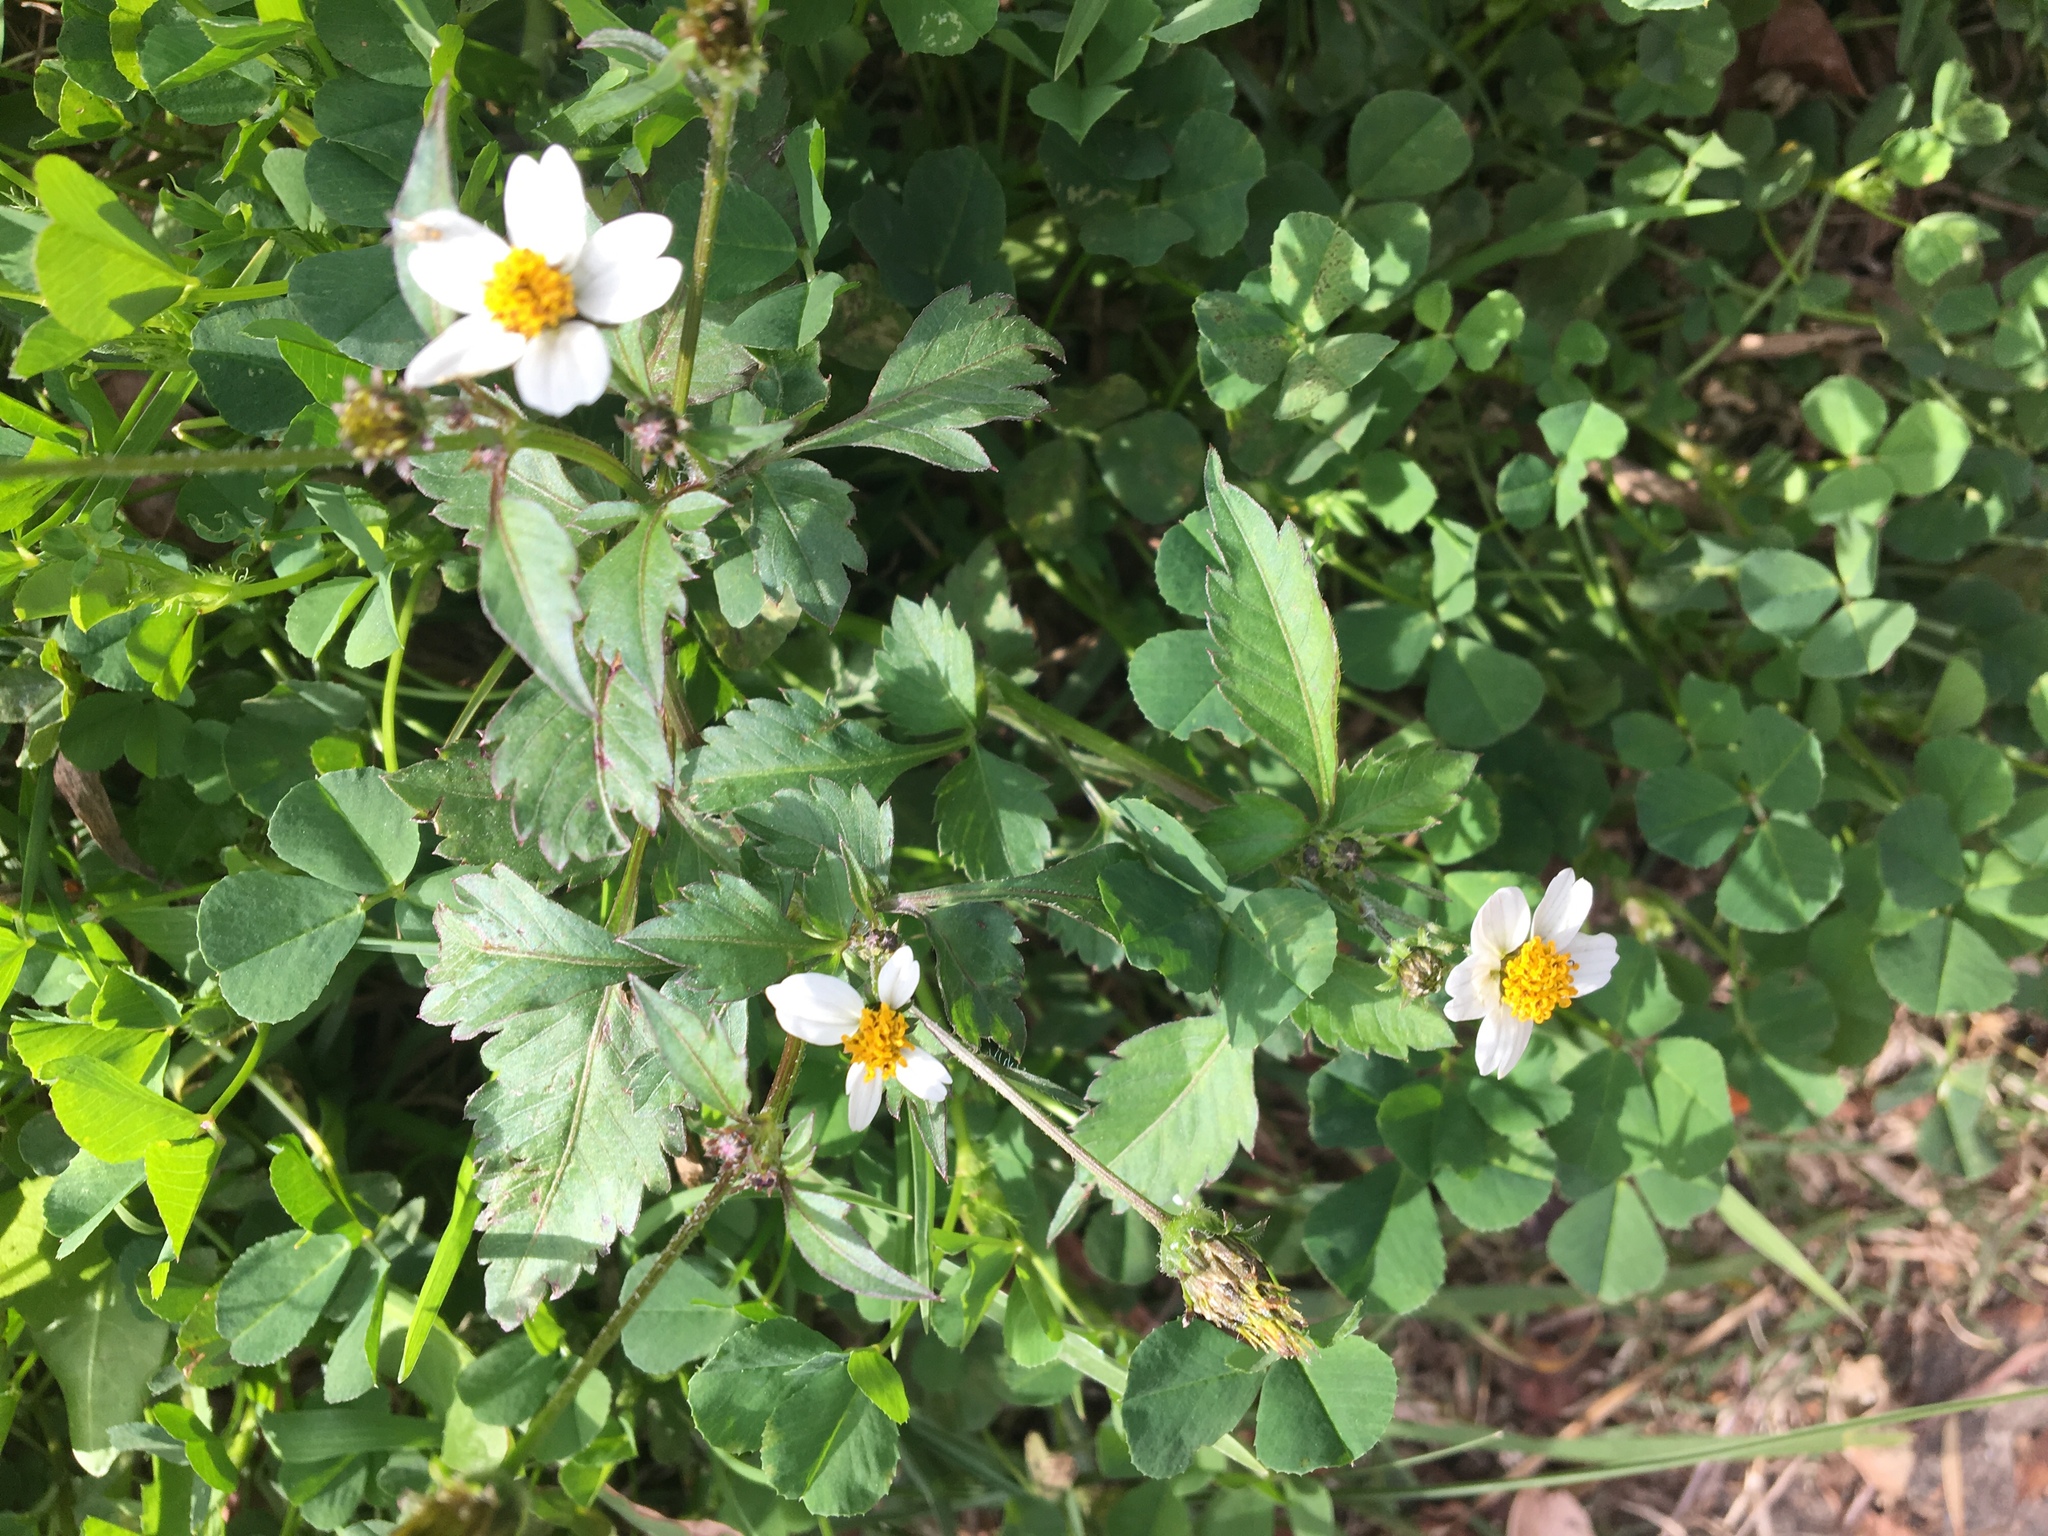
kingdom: Plantae
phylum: Tracheophyta
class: Magnoliopsida
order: Asterales
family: Asteraceae
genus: Bidens
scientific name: Bidens alba
